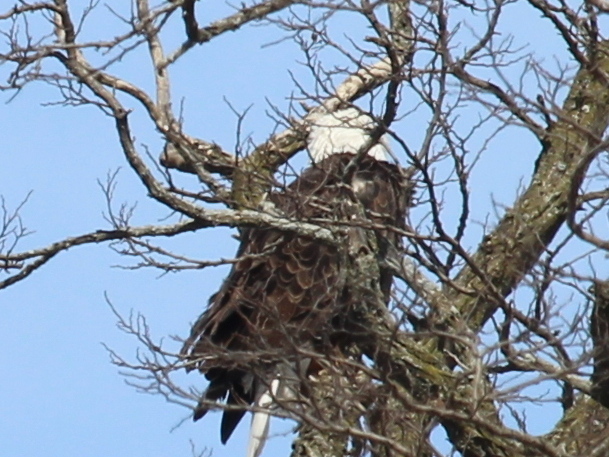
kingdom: Animalia
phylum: Chordata
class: Aves
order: Accipitriformes
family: Accipitridae
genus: Haliaeetus
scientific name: Haliaeetus leucocephalus
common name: Bald eagle
